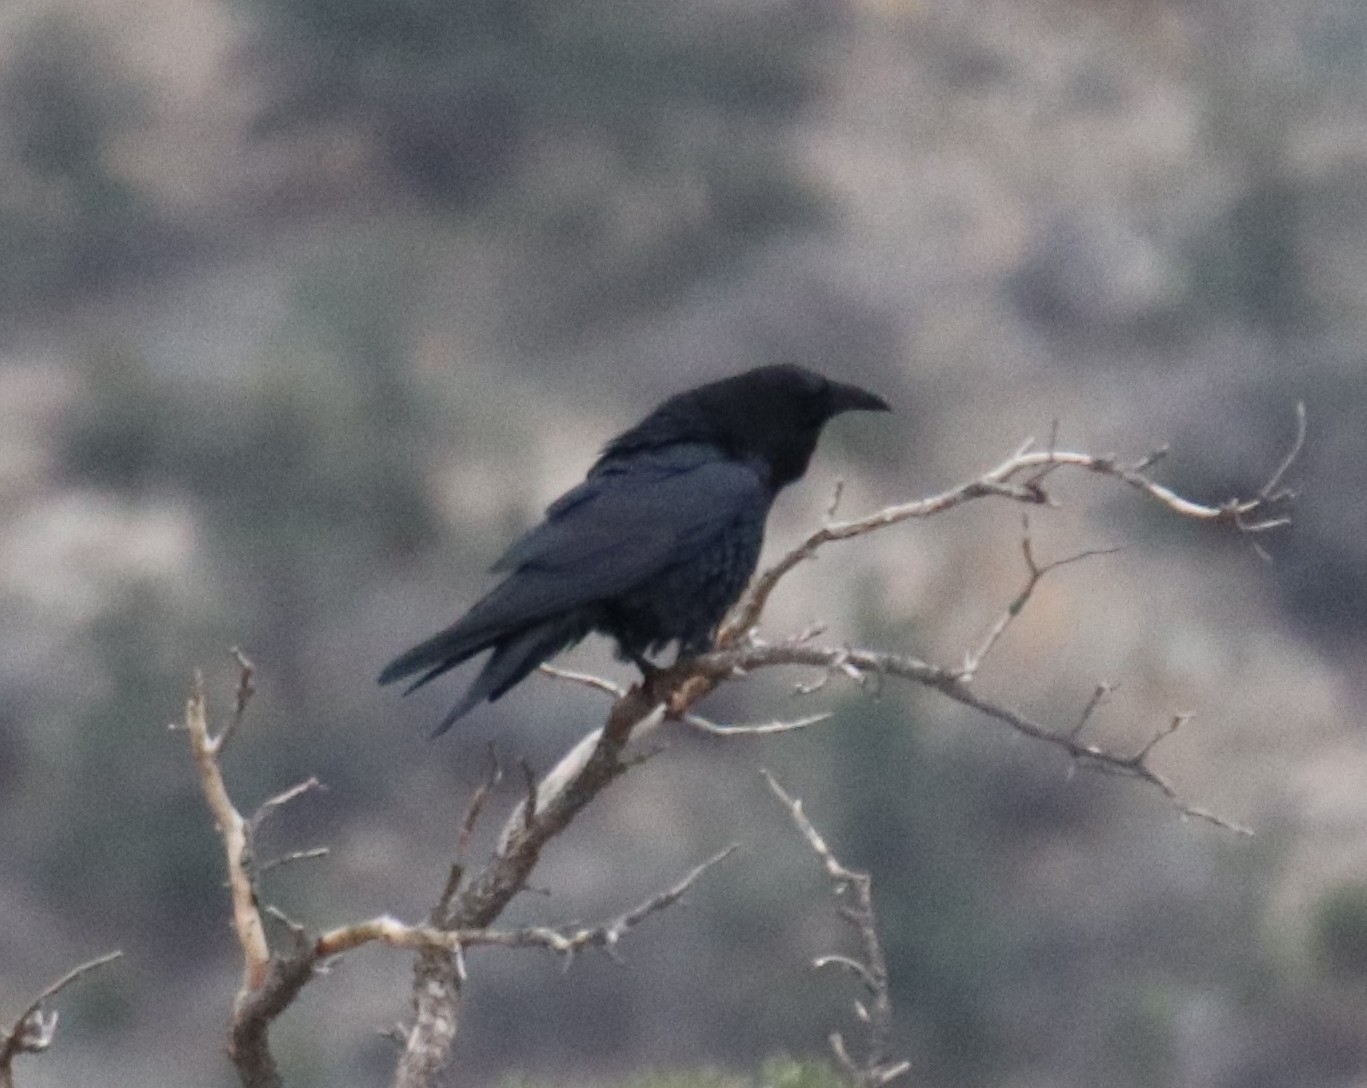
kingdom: Animalia
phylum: Chordata
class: Aves
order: Passeriformes
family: Corvidae
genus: Corvus
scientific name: Corvus corax
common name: Common raven
